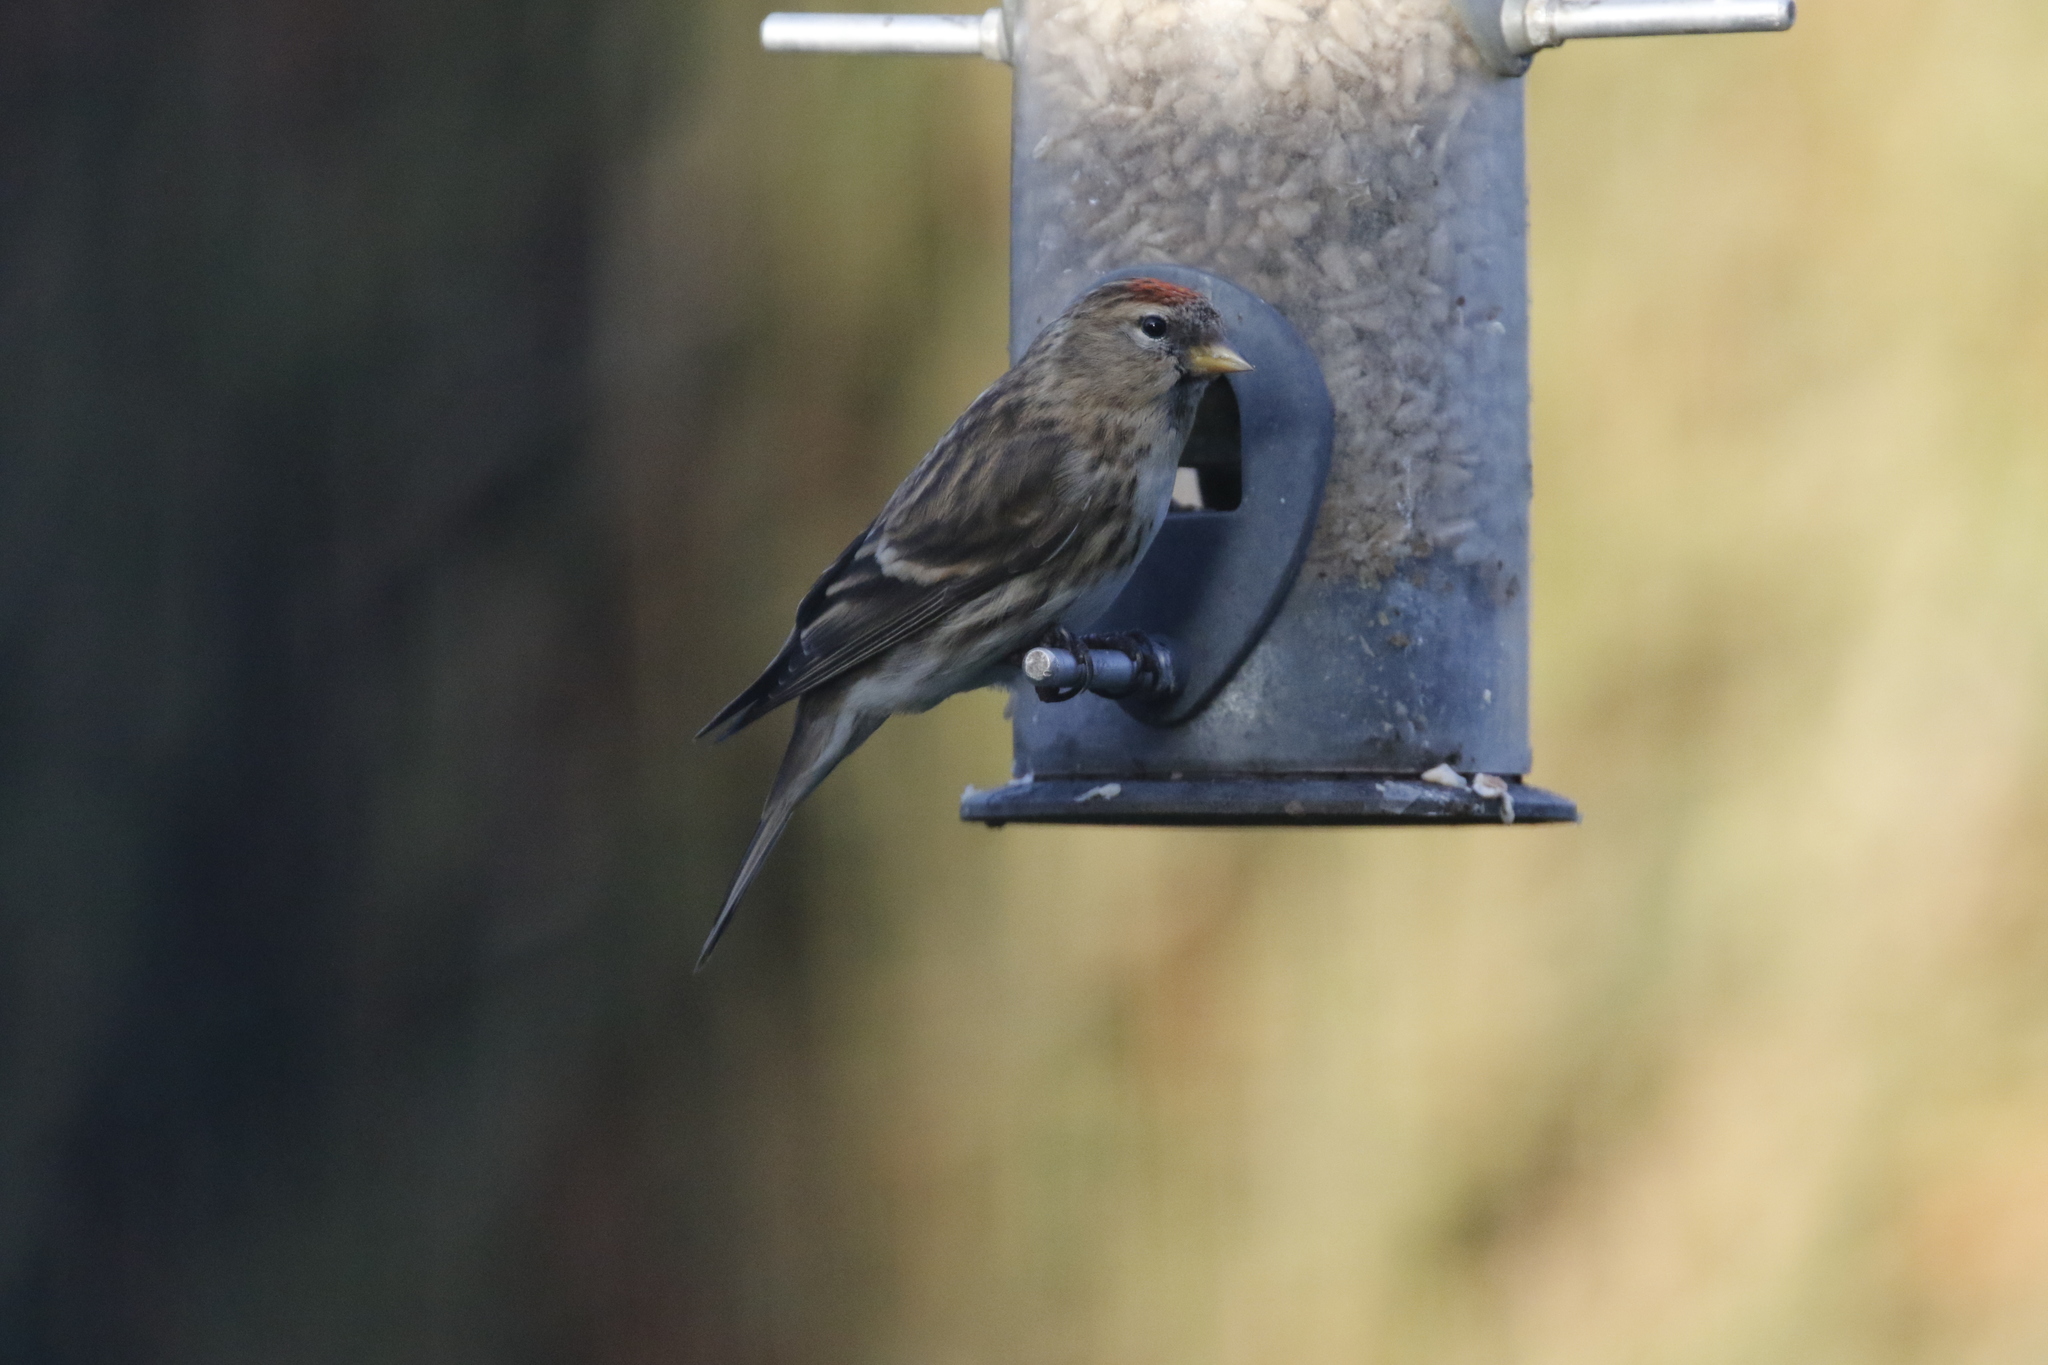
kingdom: Animalia
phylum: Chordata
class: Aves
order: Passeriformes
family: Fringillidae
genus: Acanthis
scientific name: Acanthis flammea
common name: Common redpoll
